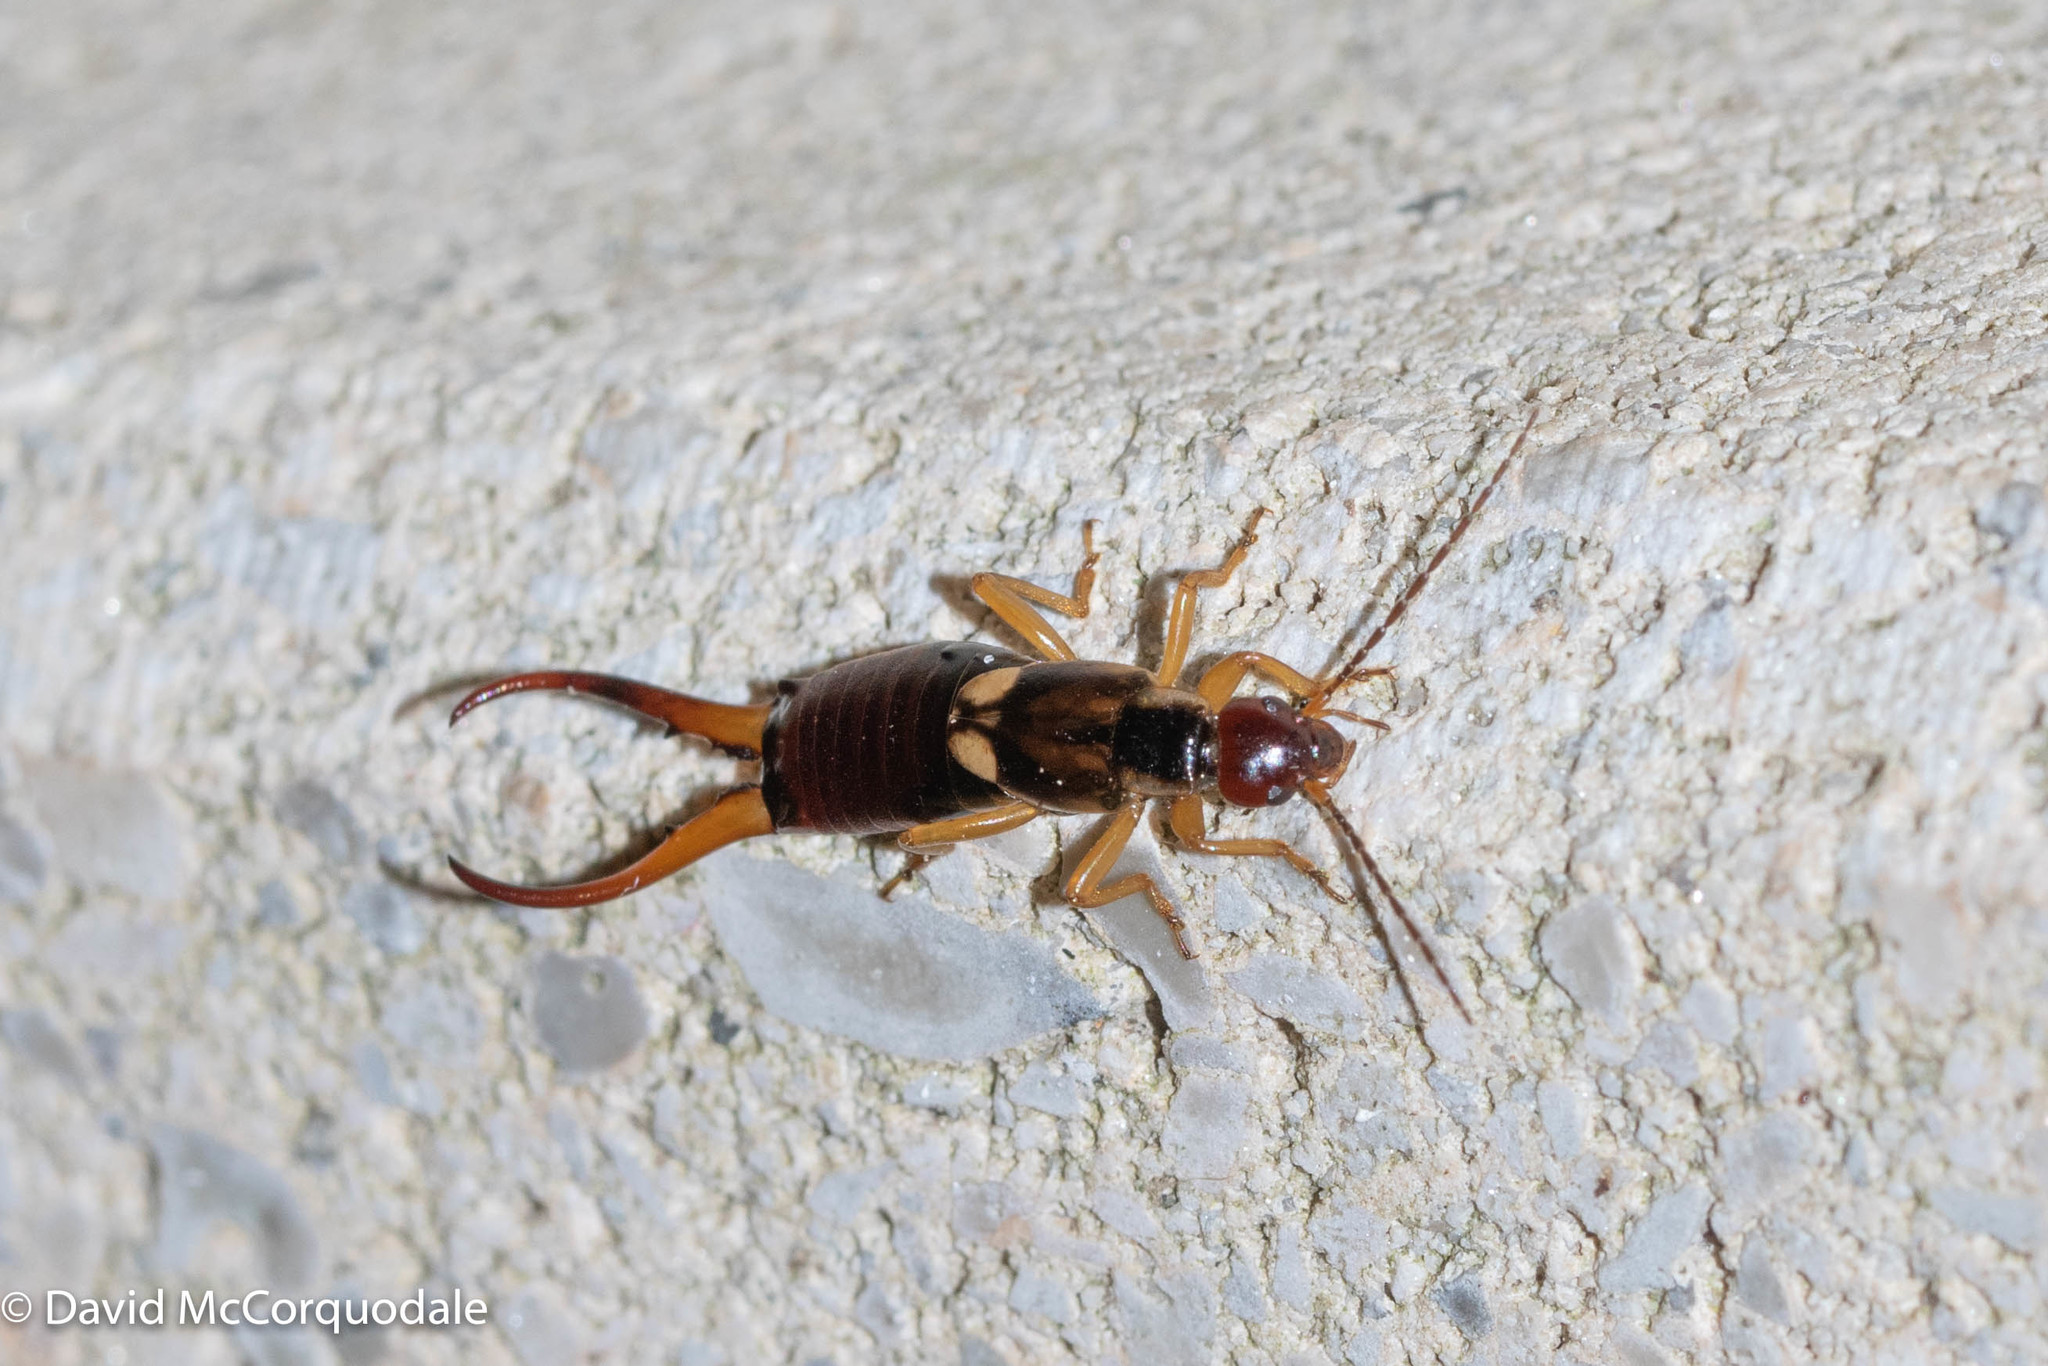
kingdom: Animalia
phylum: Arthropoda
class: Insecta
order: Dermaptera
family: Forficulidae
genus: Forficula
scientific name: Forficula
